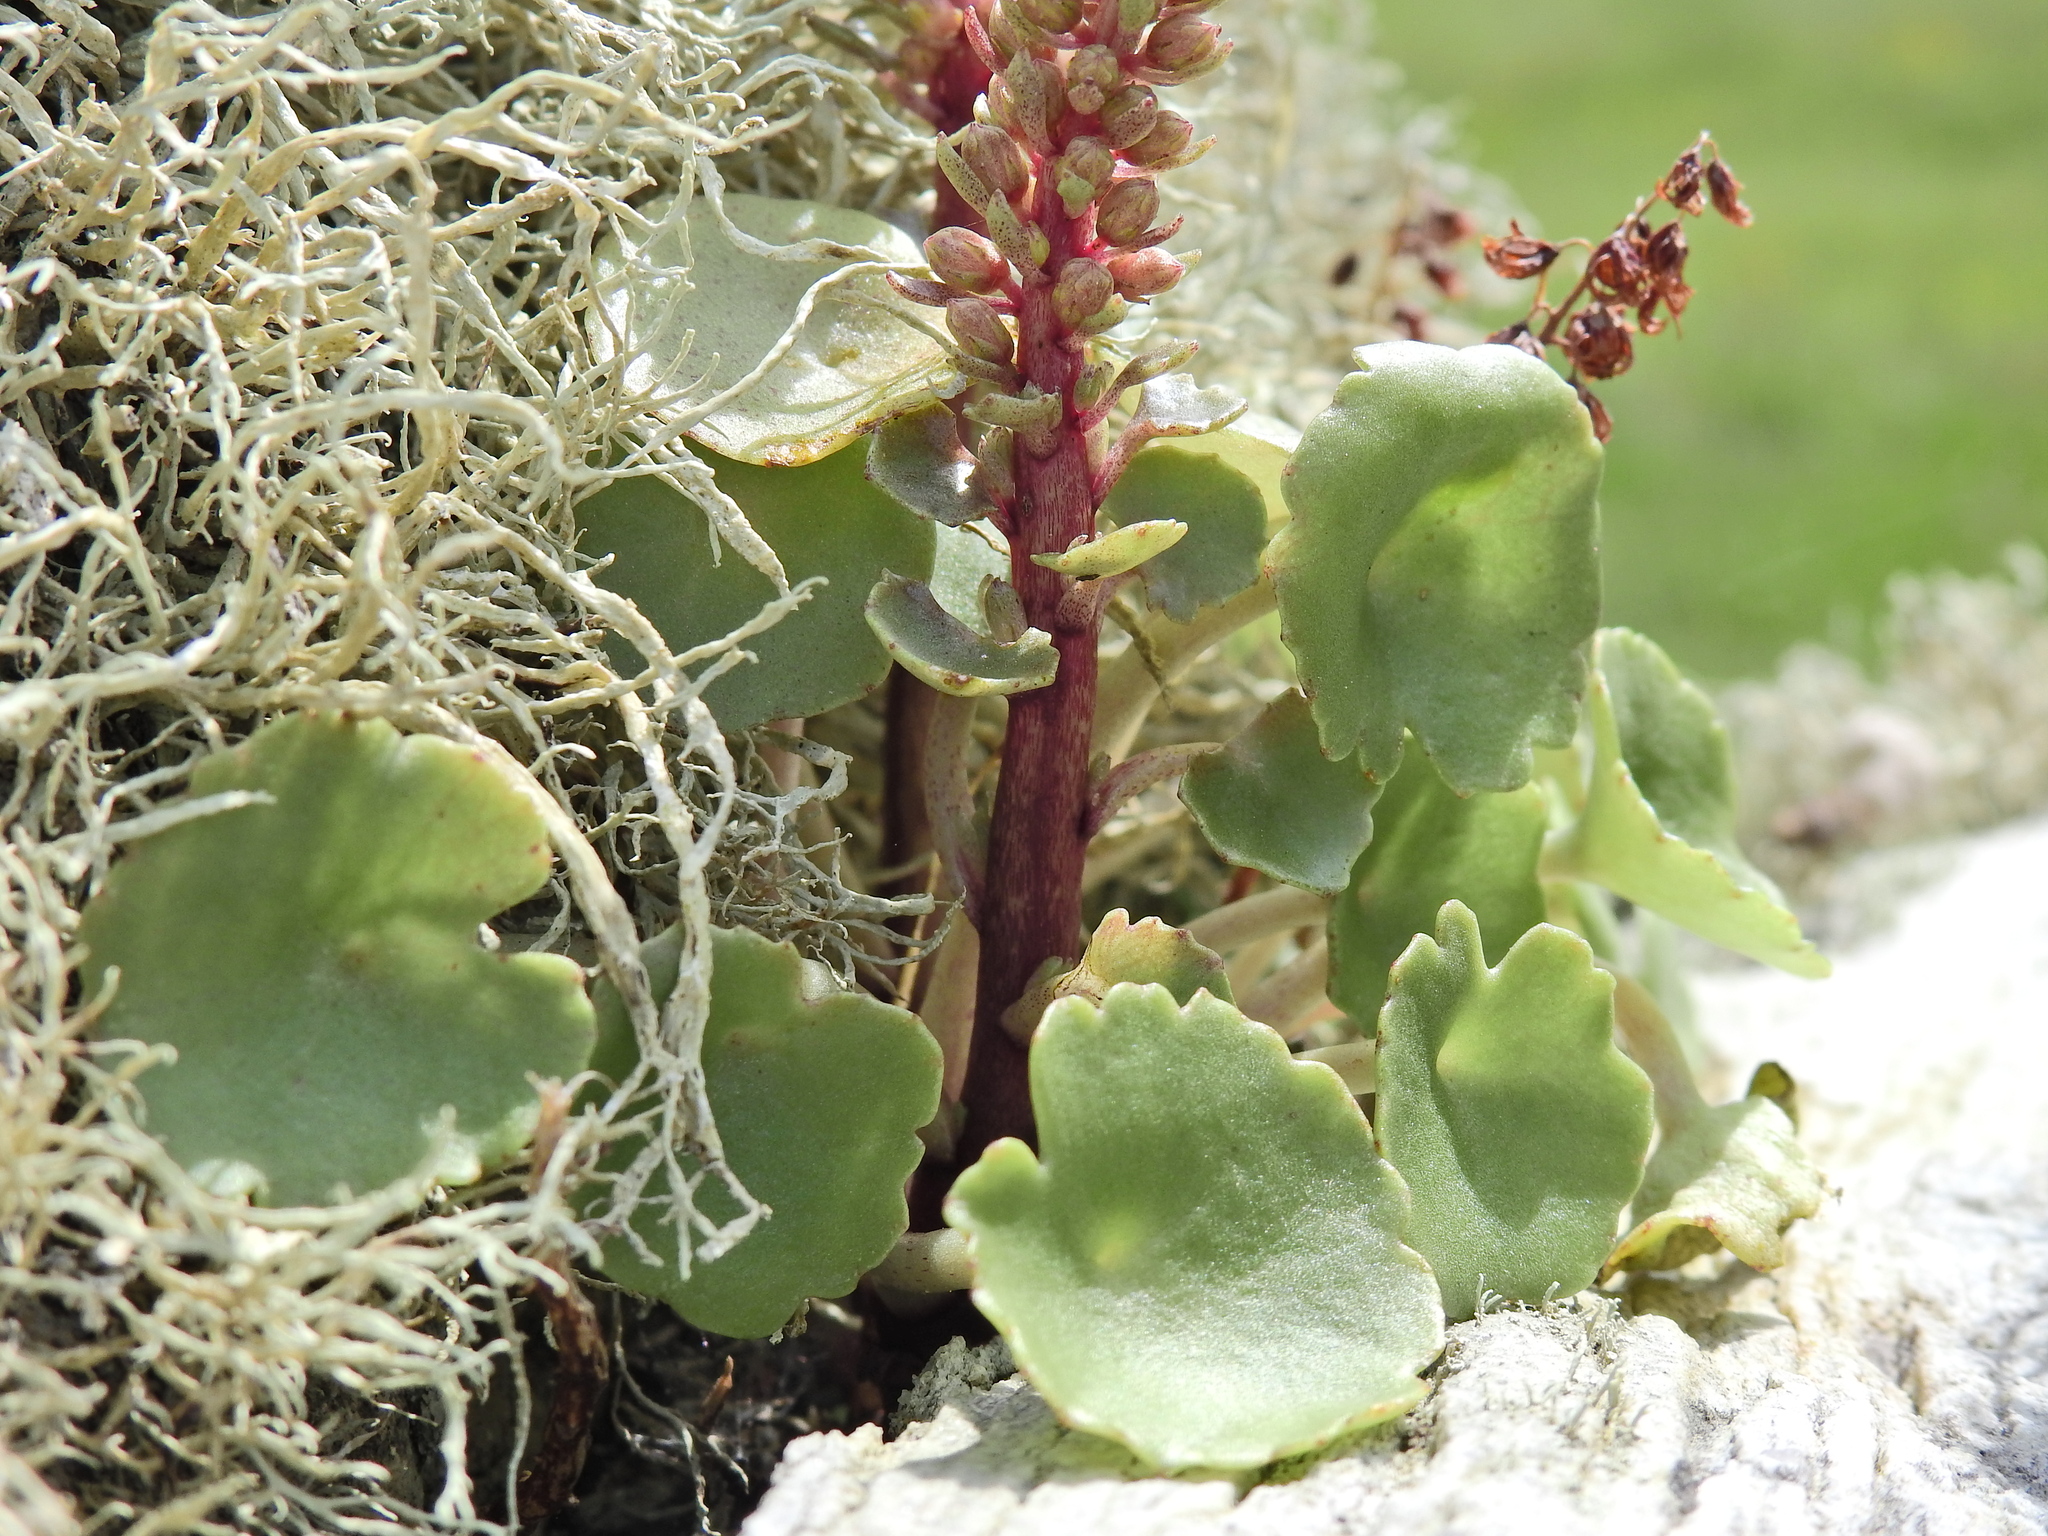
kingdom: Plantae
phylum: Tracheophyta
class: Magnoliopsida
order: Saxifragales
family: Crassulaceae
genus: Umbilicus
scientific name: Umbilicus rupestris
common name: Navelwort
